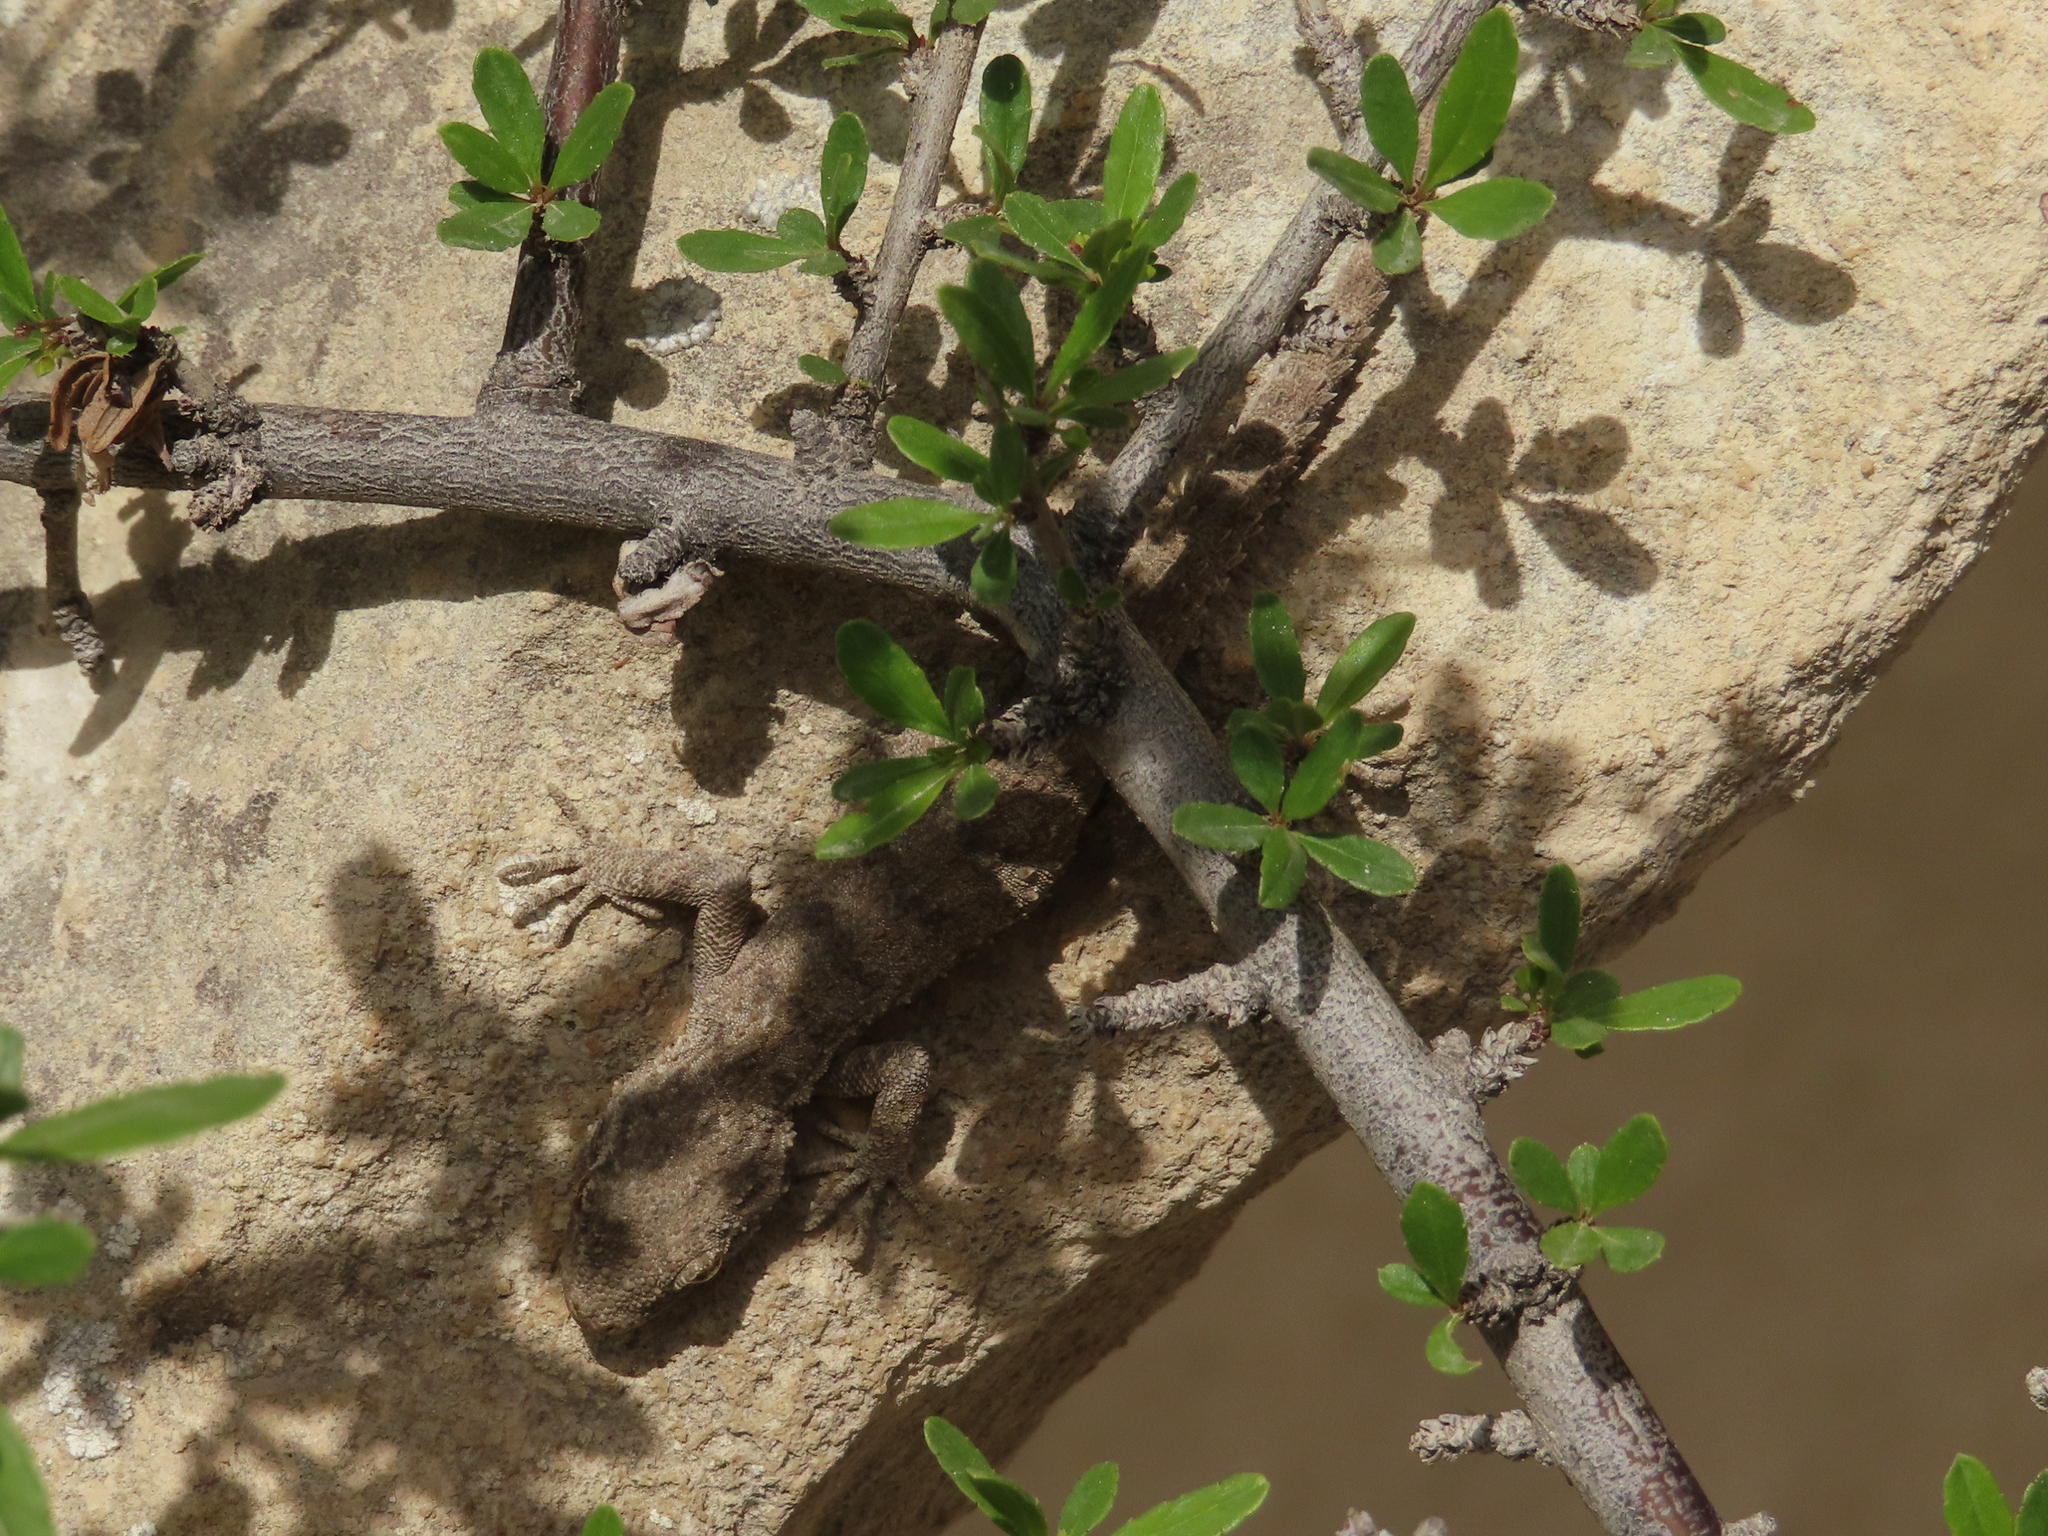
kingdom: Animalia
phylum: Chordata
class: Squamata
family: Gekkonidae
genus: Mediodactylus
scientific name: Mediodactylus russowii
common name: Grey thin-toed gecko
